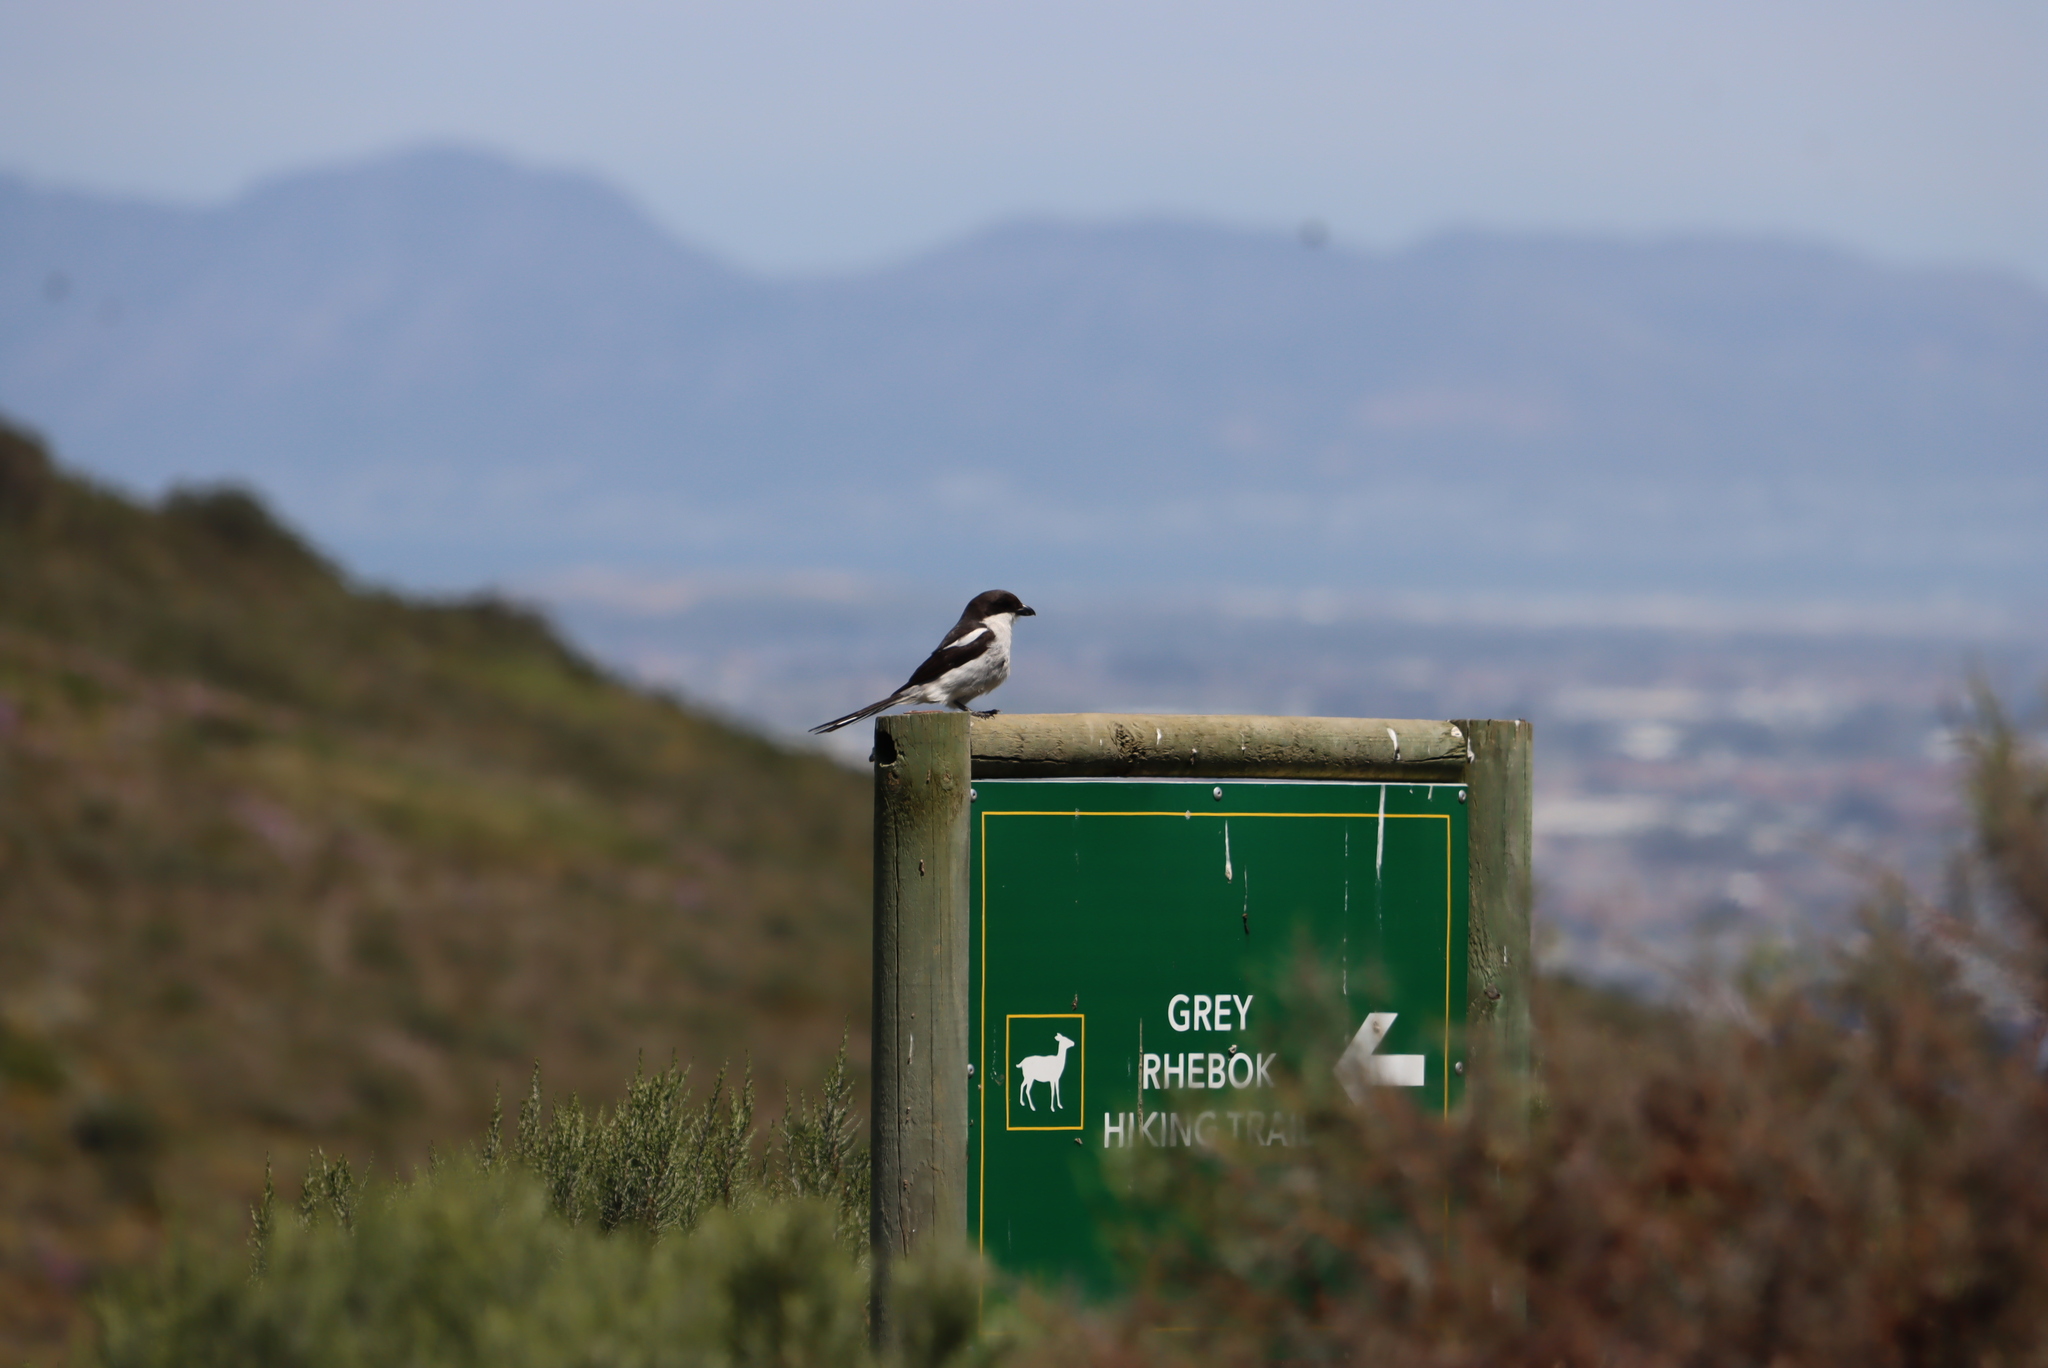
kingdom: Animalia
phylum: Chordata
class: Aves
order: Passeriformes
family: Laniidae
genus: Lanius
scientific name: Lanius collaris
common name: Southern fiscal
